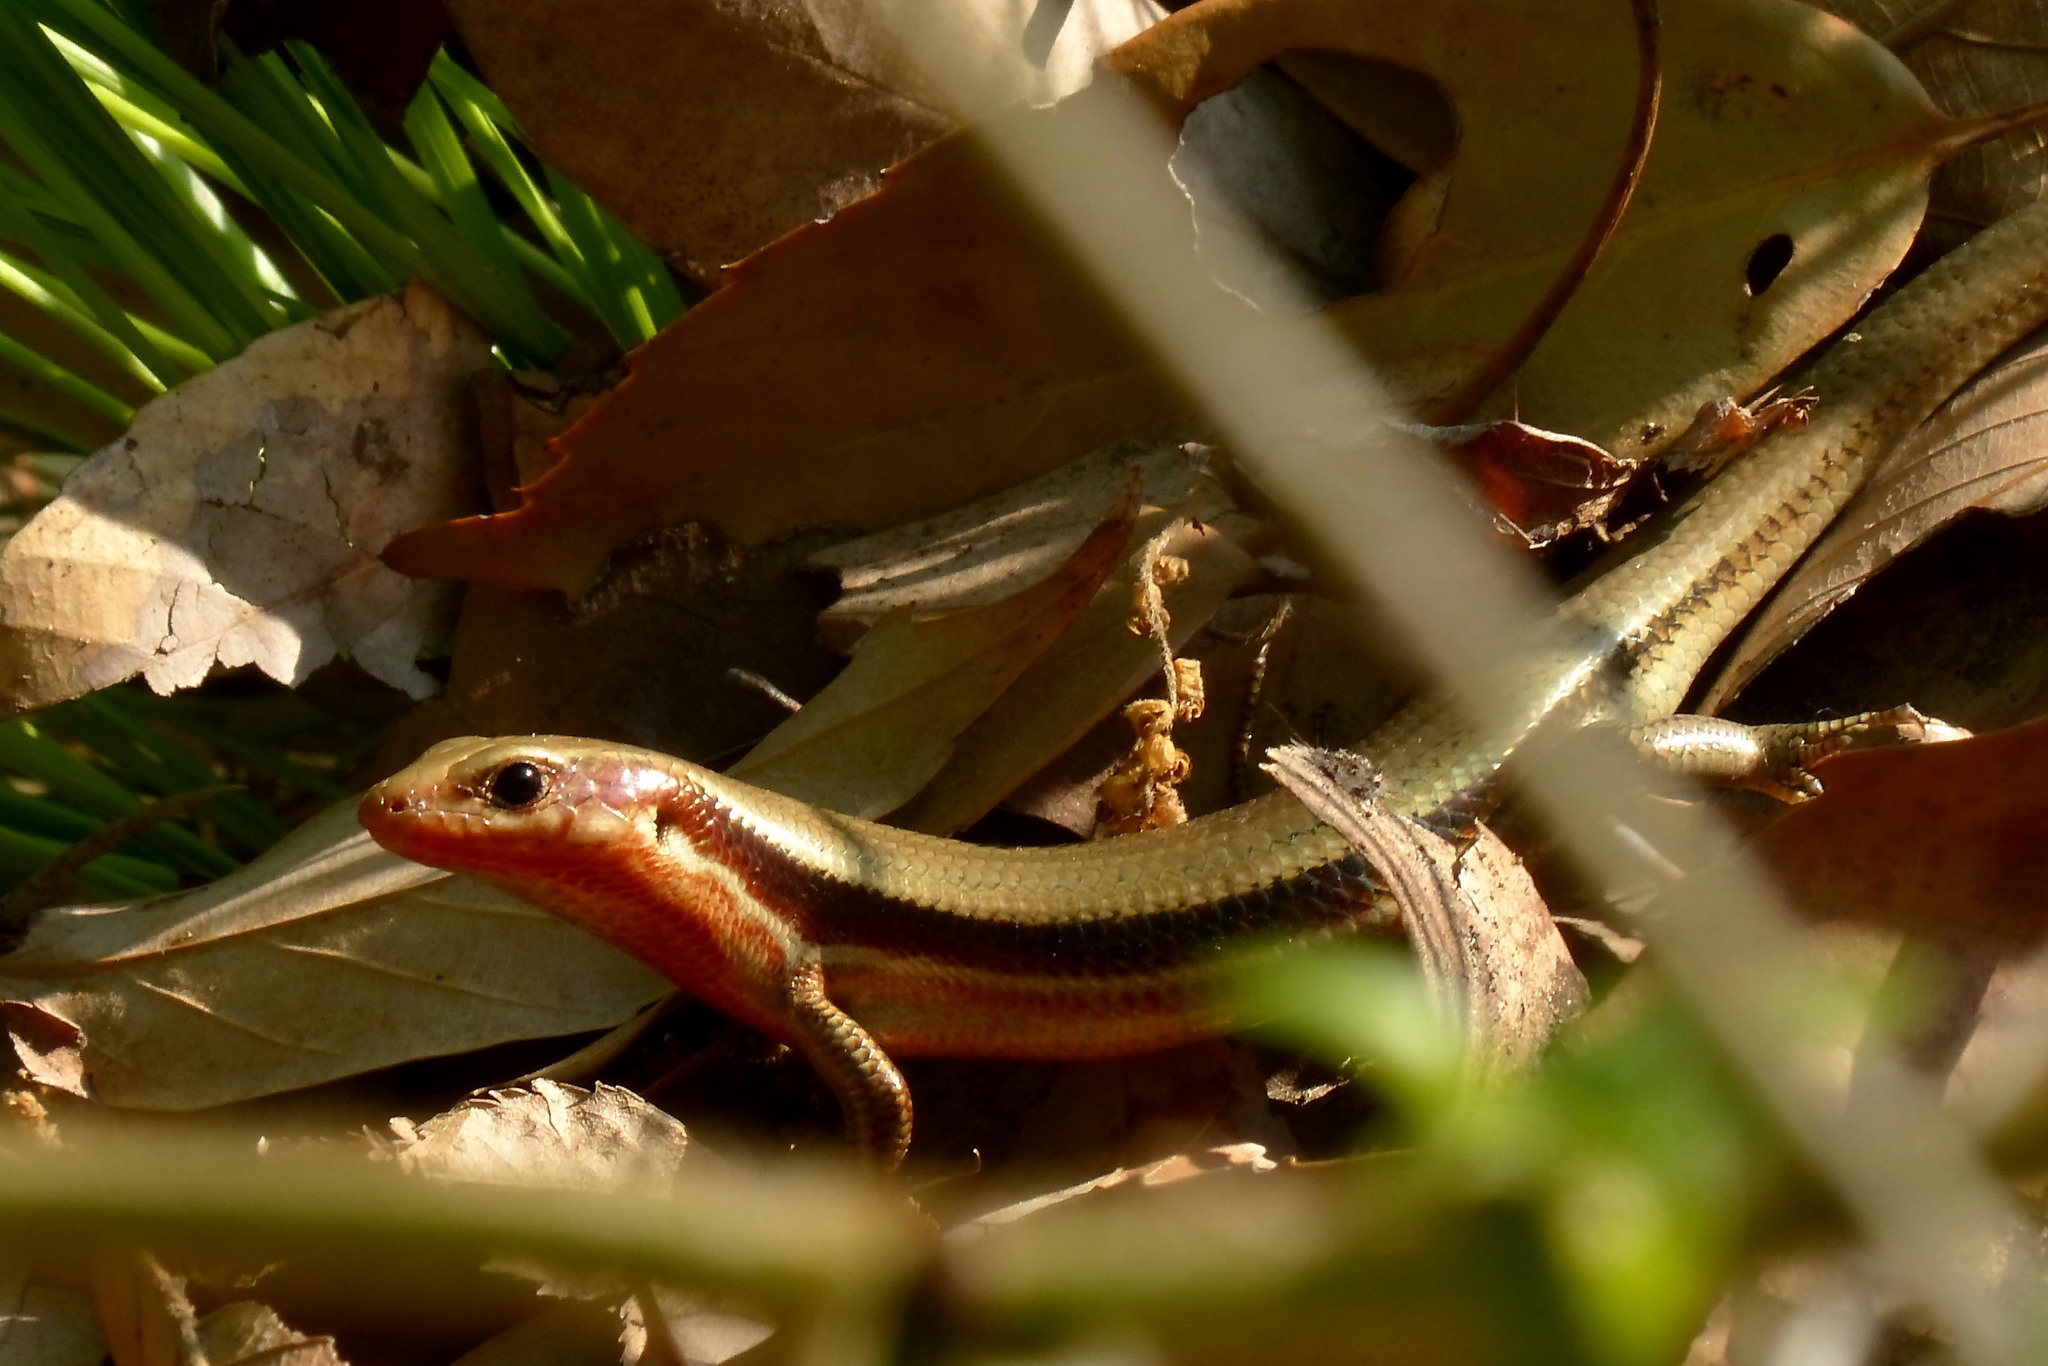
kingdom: Animalia
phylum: Chordata
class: Squamata
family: Scincidae
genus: Plestiodon
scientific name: Plestiodon japonicus
